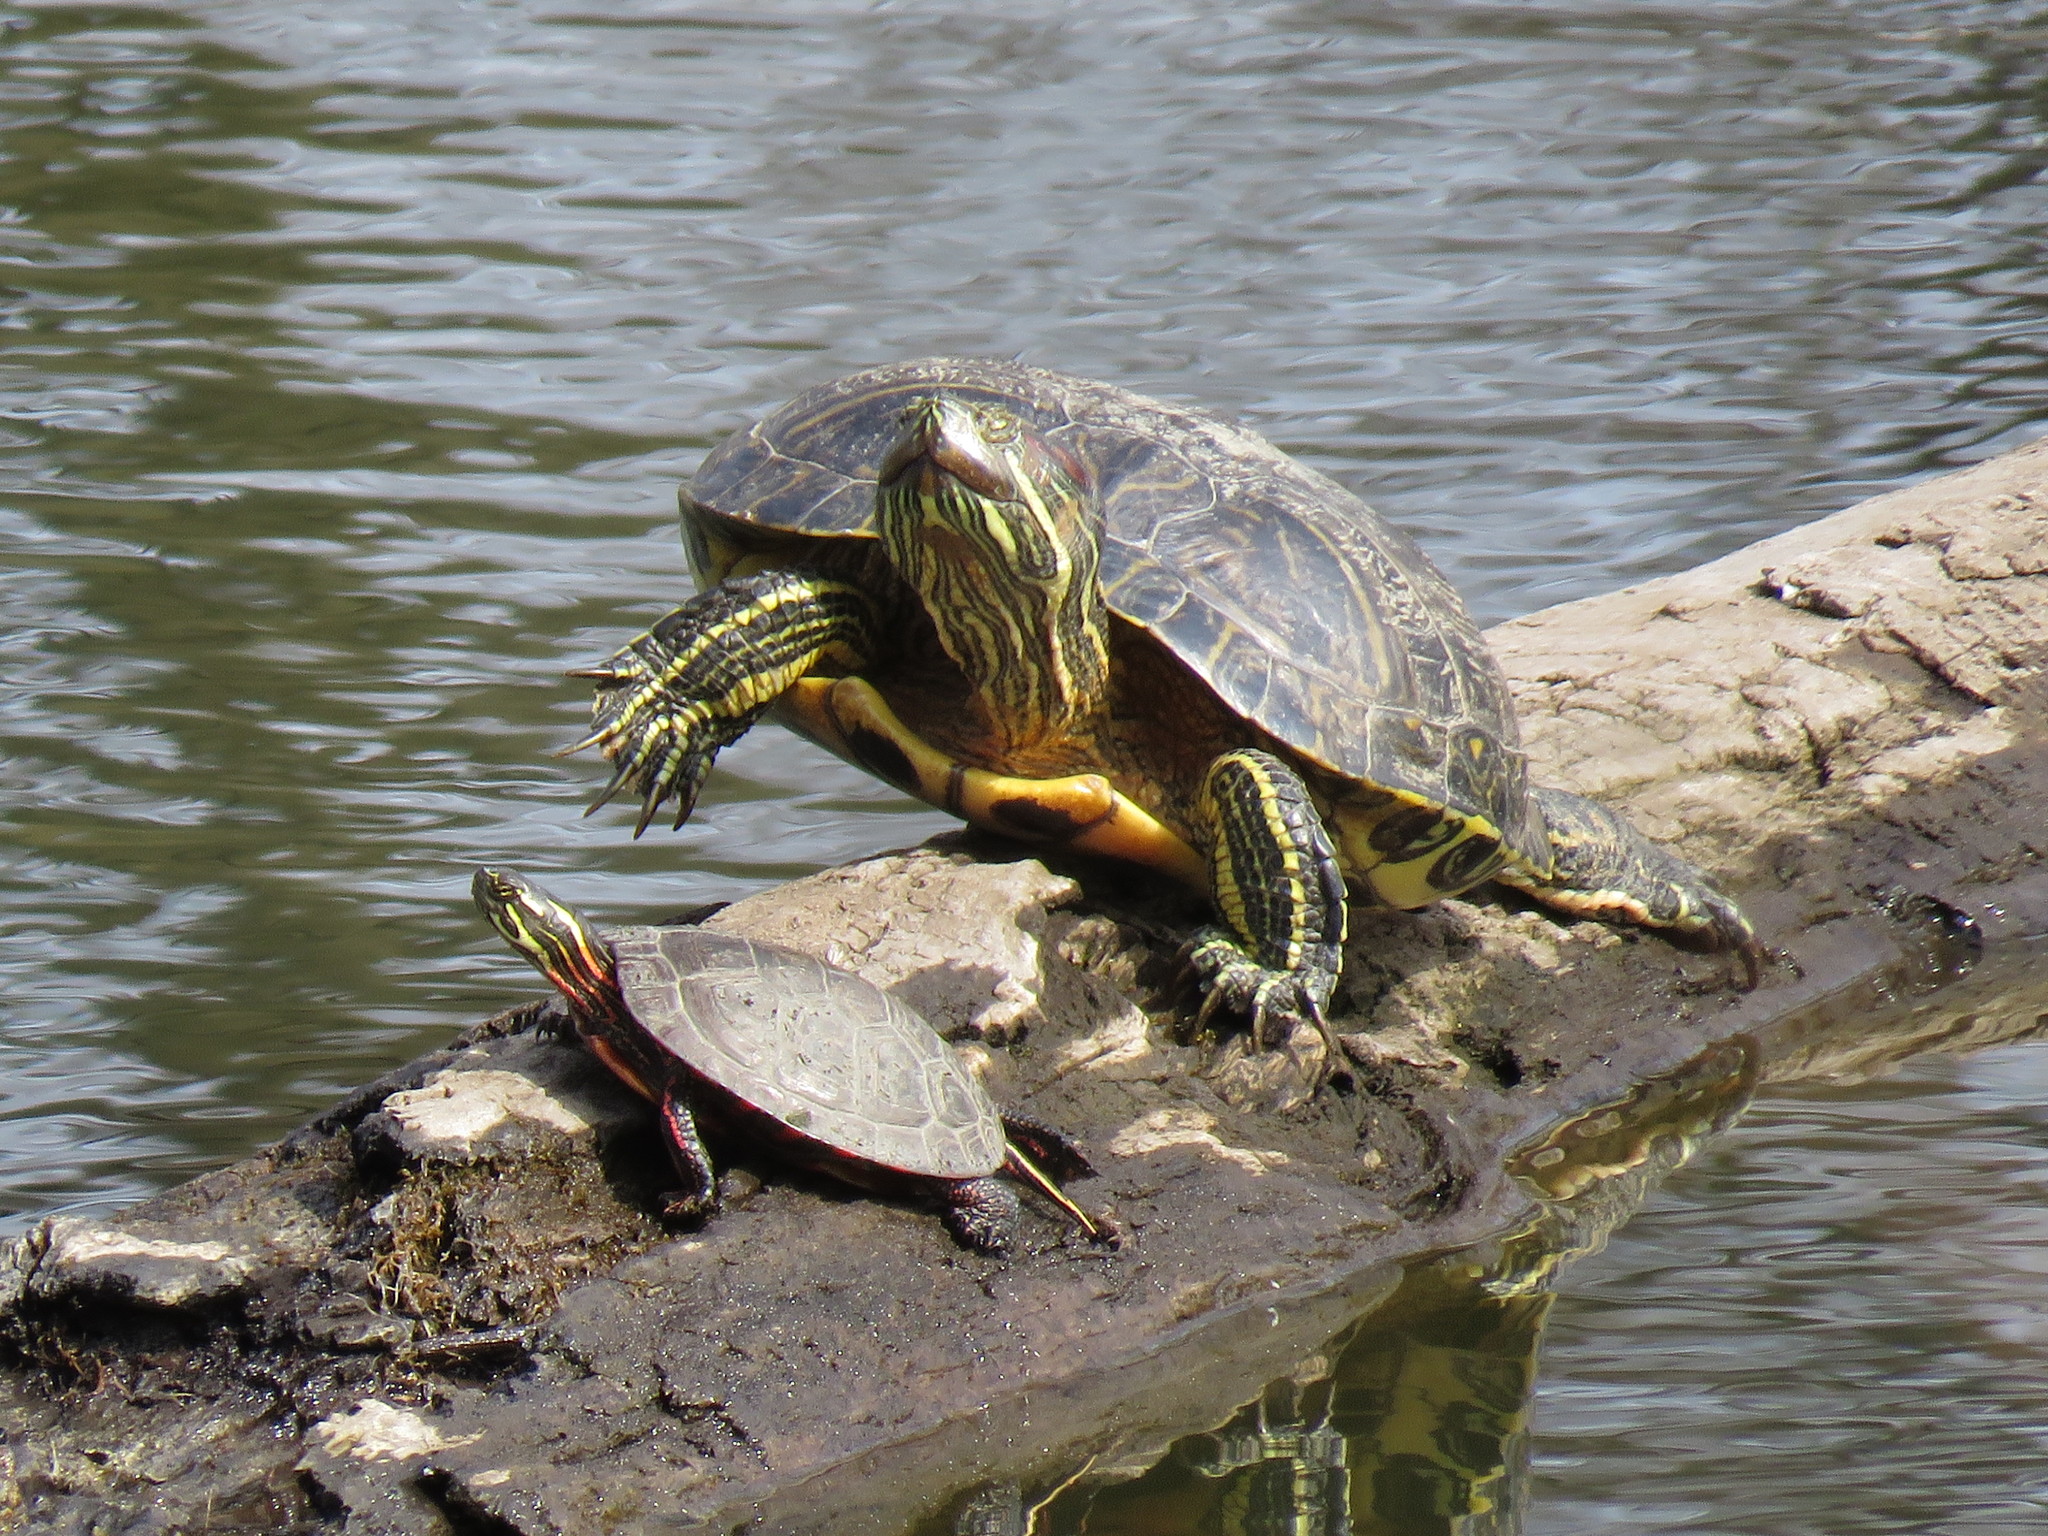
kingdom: Animalia
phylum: Chordata
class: Testudines
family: Emydidae
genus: Trachemys
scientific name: Trachemys scripta
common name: Slider
